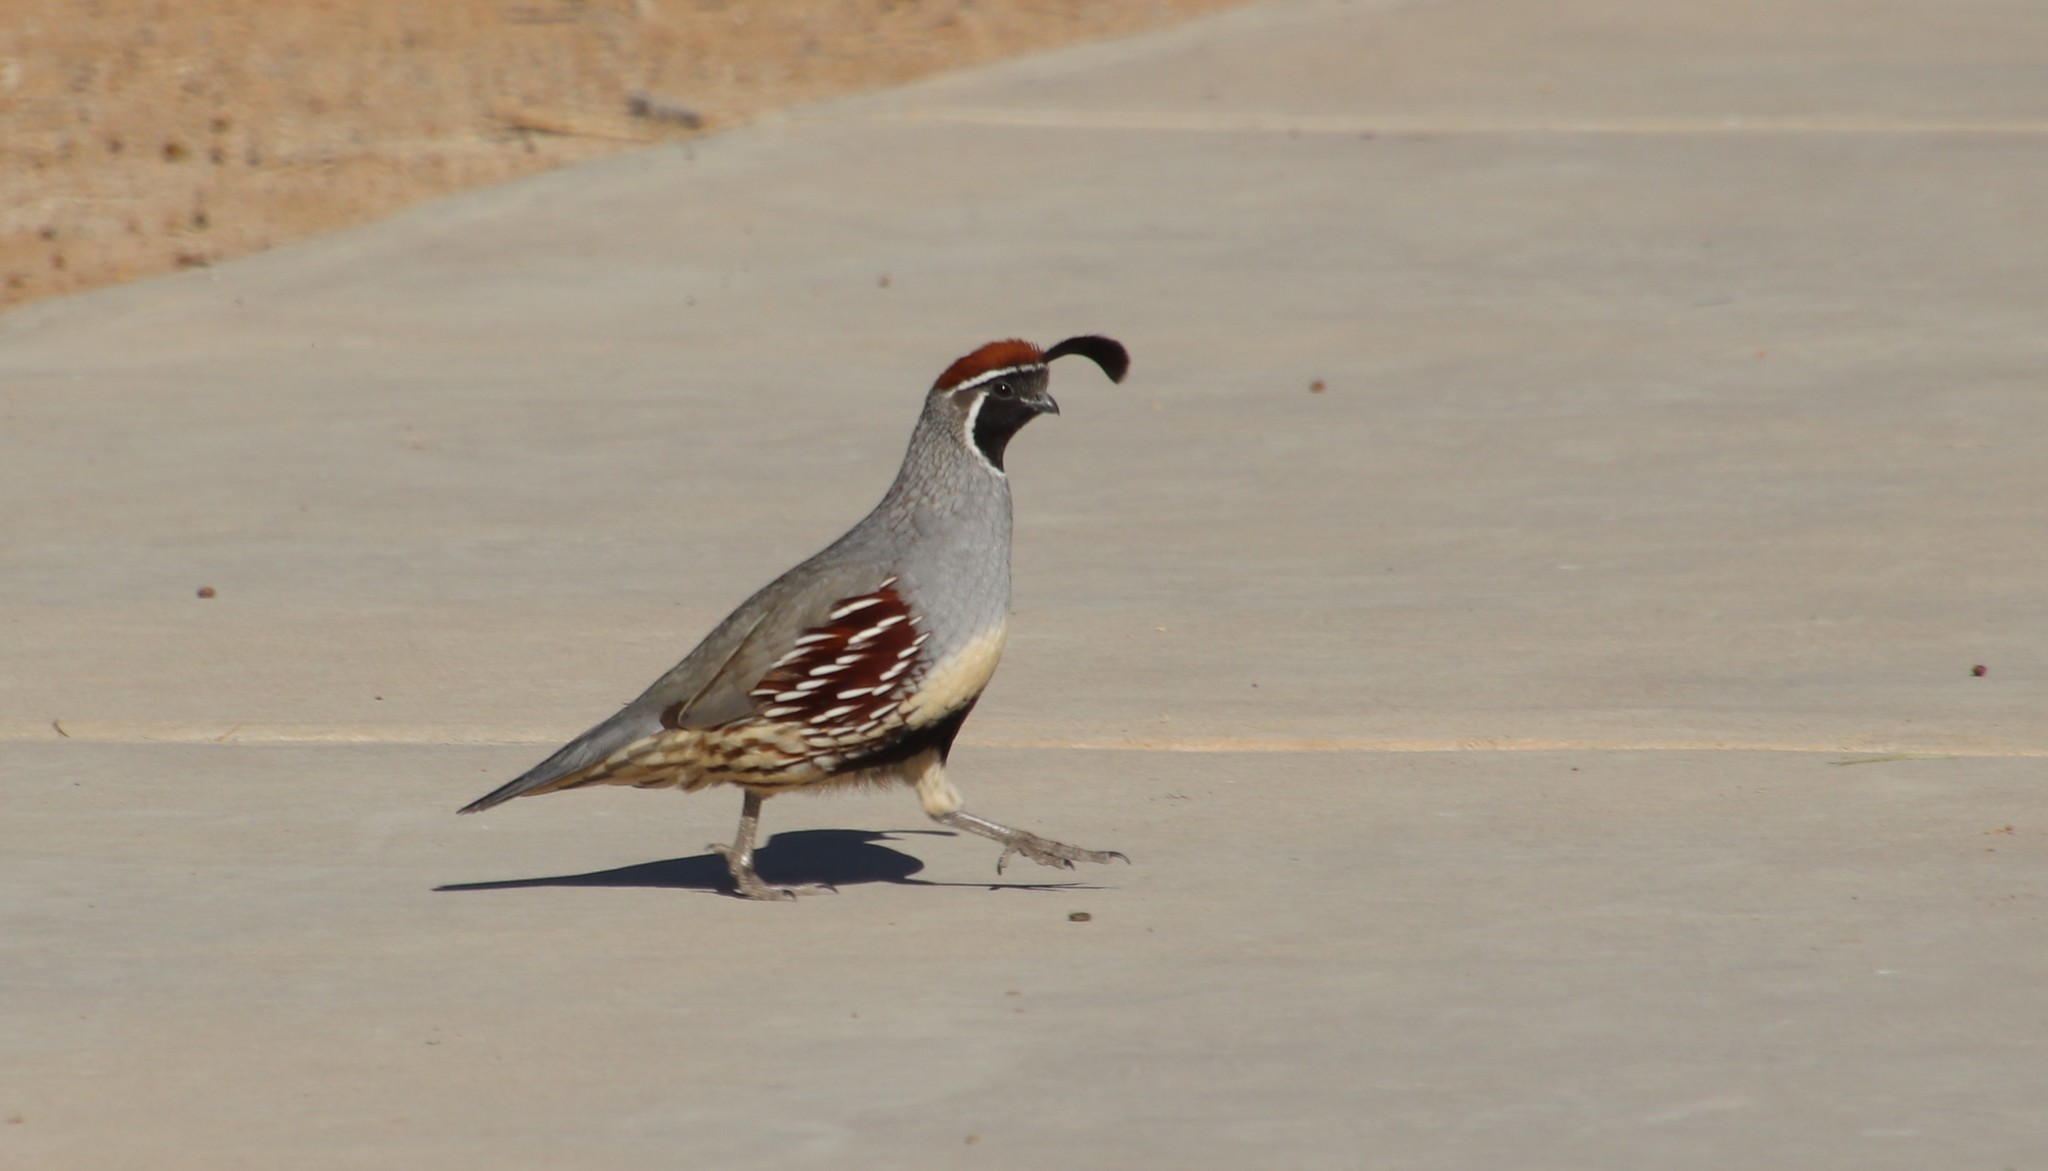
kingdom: Animalia
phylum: Chordata
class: Aves
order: Galliformes
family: Odontophoridae
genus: Callipepla
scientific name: Callipepla gambelii
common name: Gambel's quail
